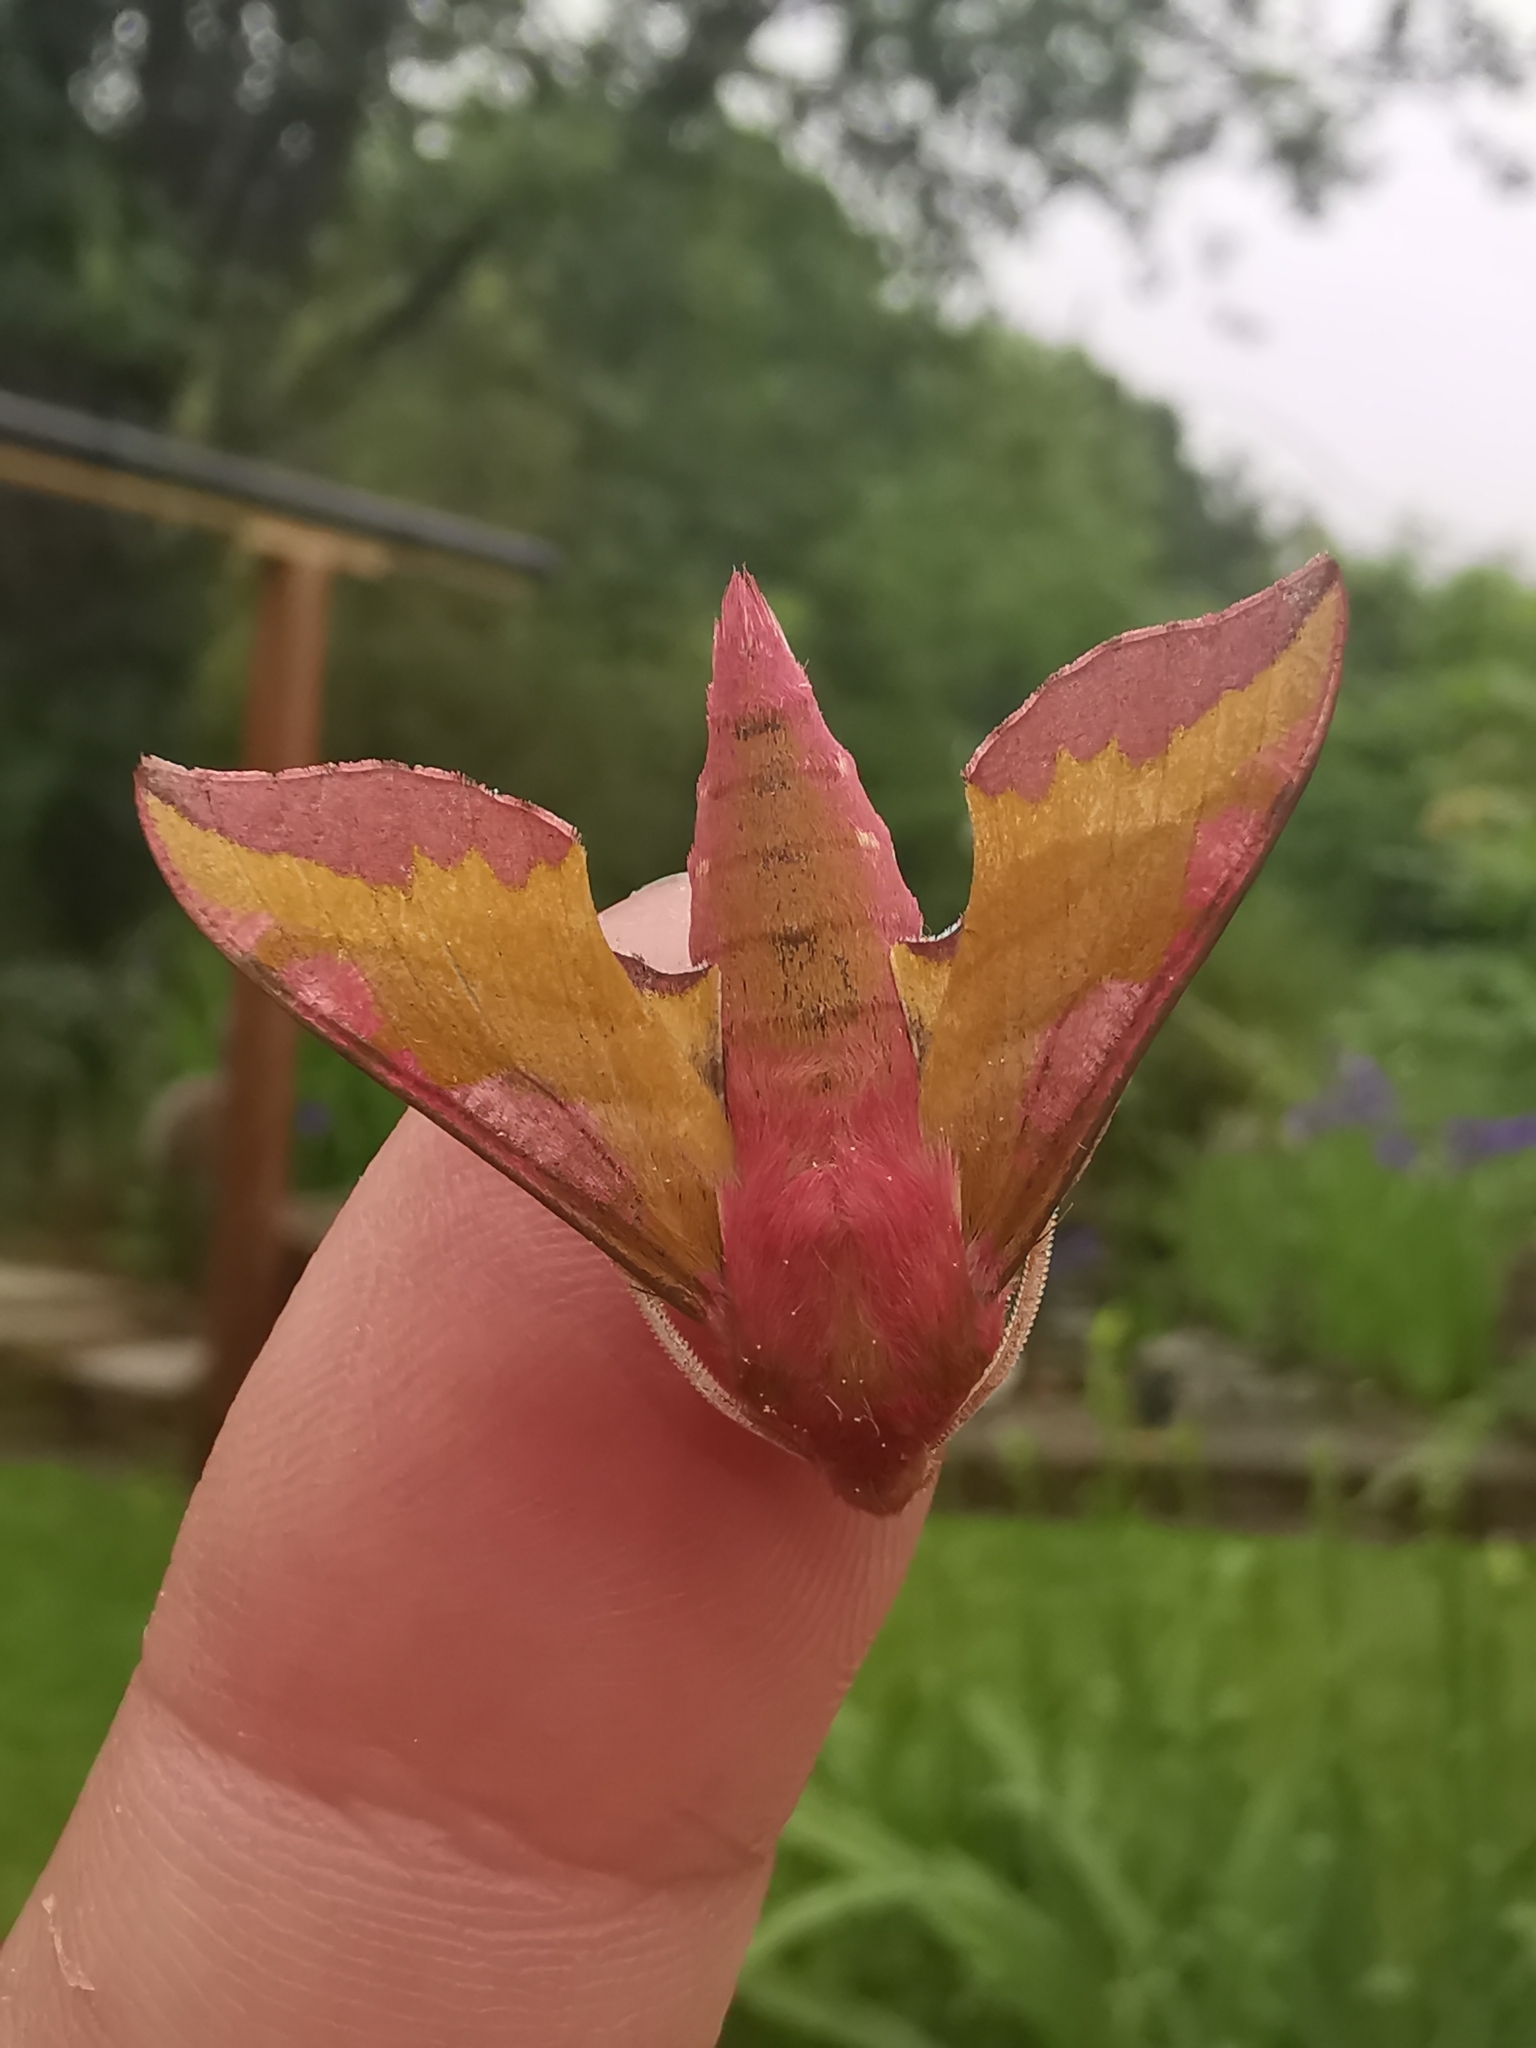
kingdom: Animalia
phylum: Arthropoda
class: Insecta
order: Lepidoptera
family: Sphingidae
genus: Deilephila
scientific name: Deilephila porcellus
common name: Small elephant hawk-moth
